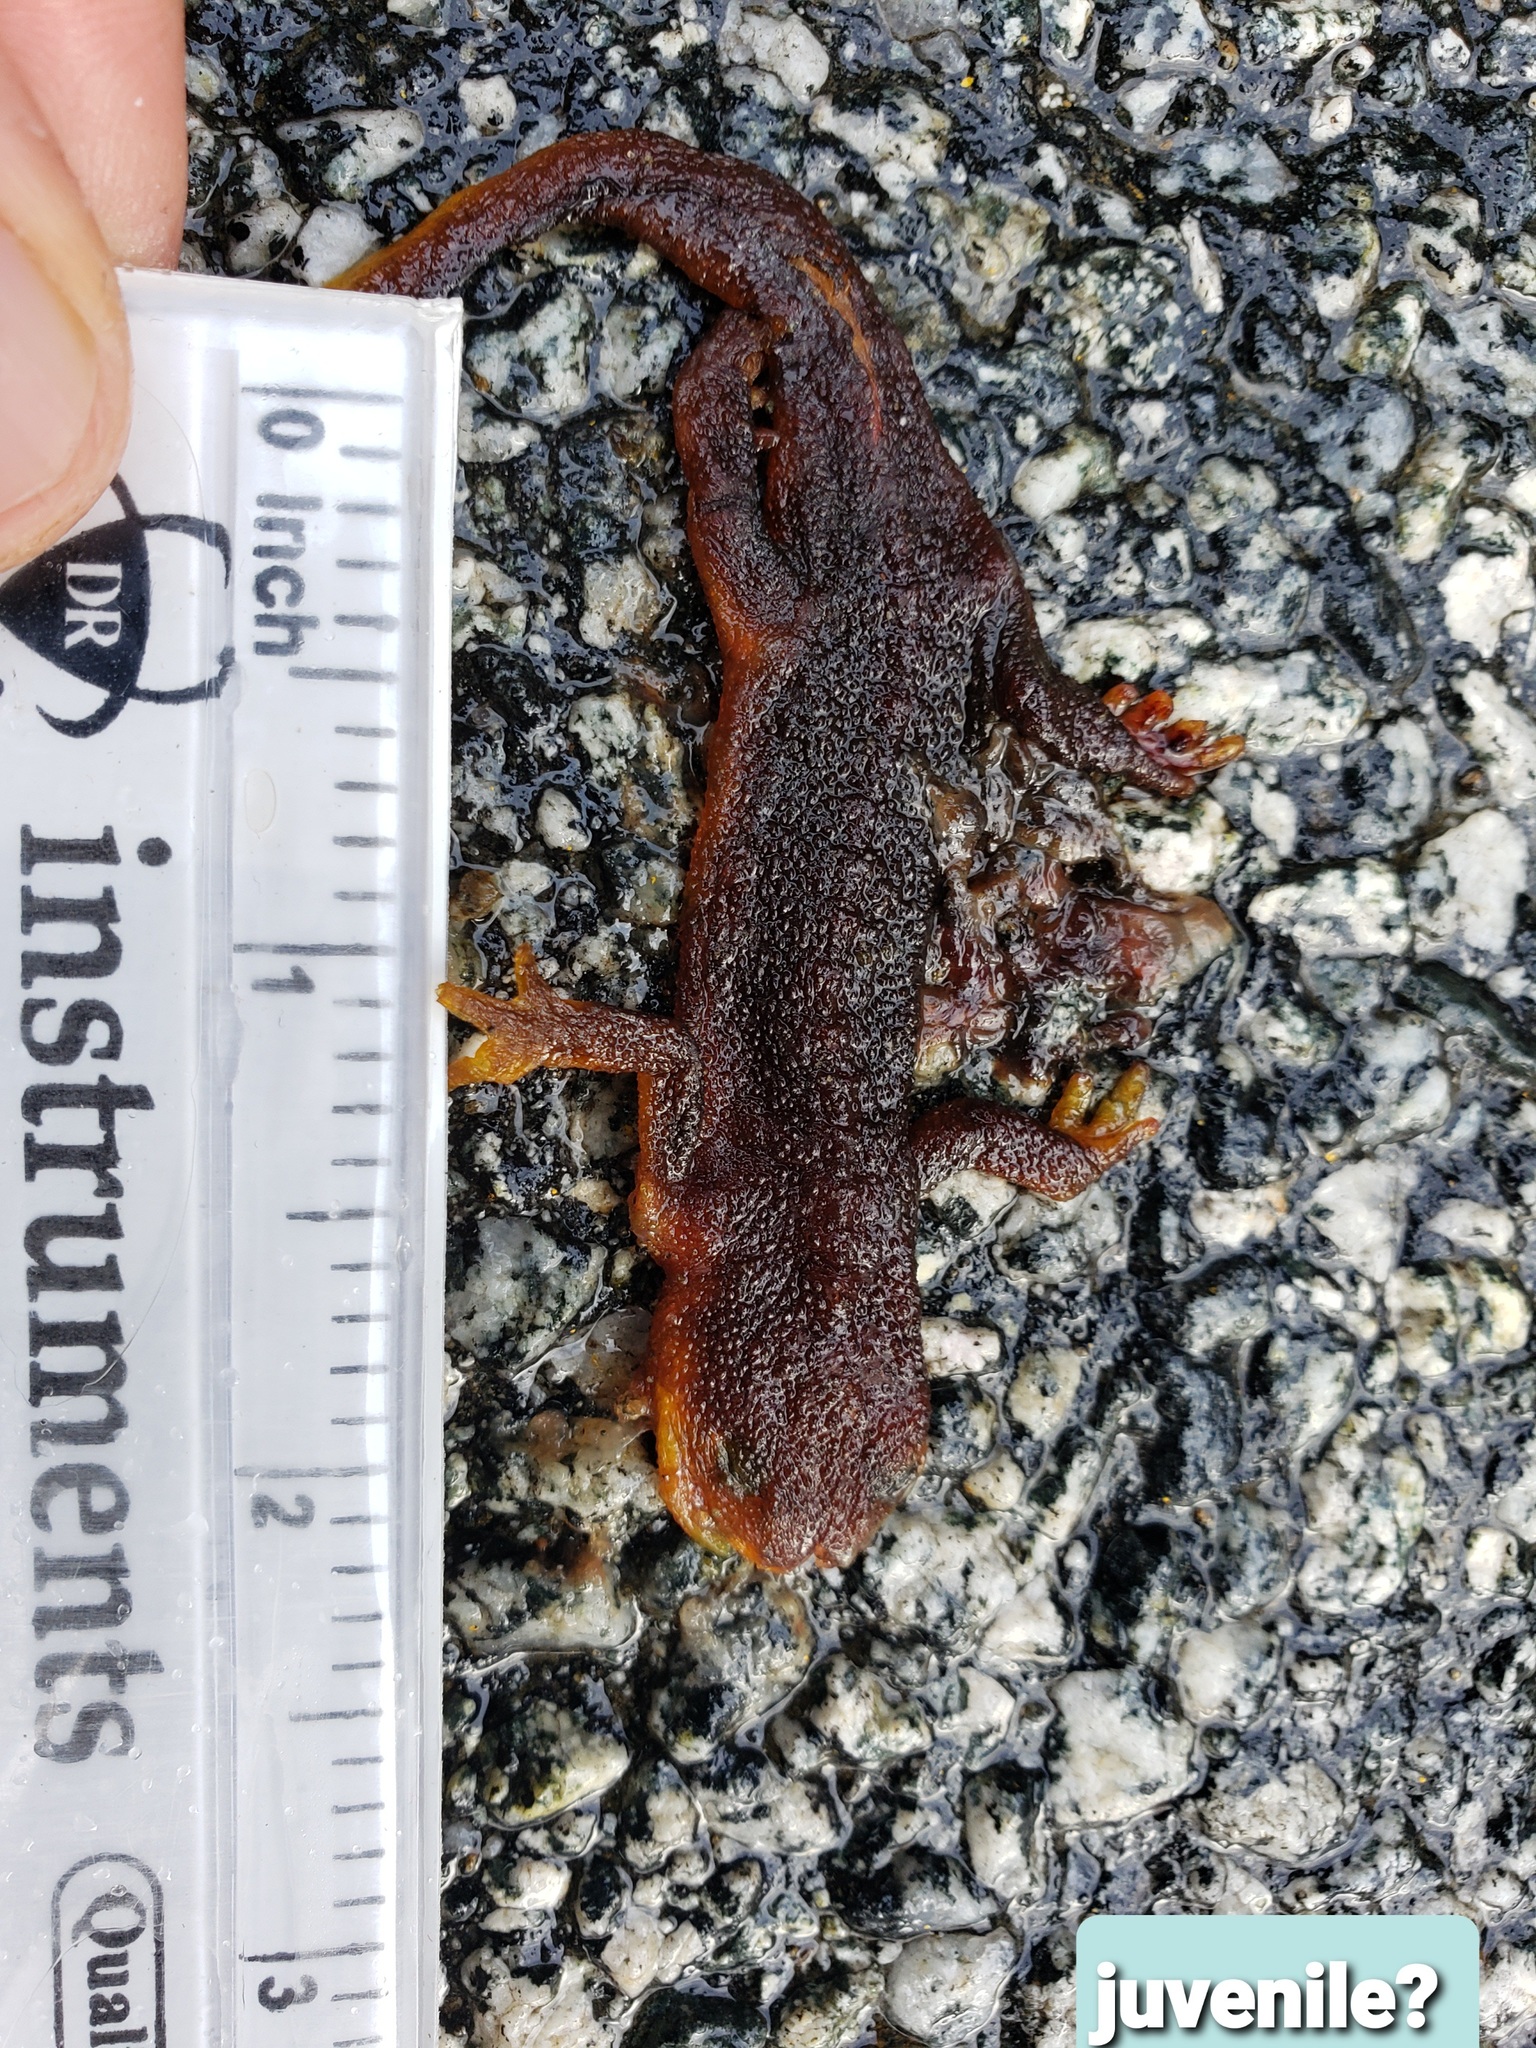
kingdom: Animalia
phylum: Chordata
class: Amphibia
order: Caudata
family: Salamandridae
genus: Taricha
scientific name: Taricha
